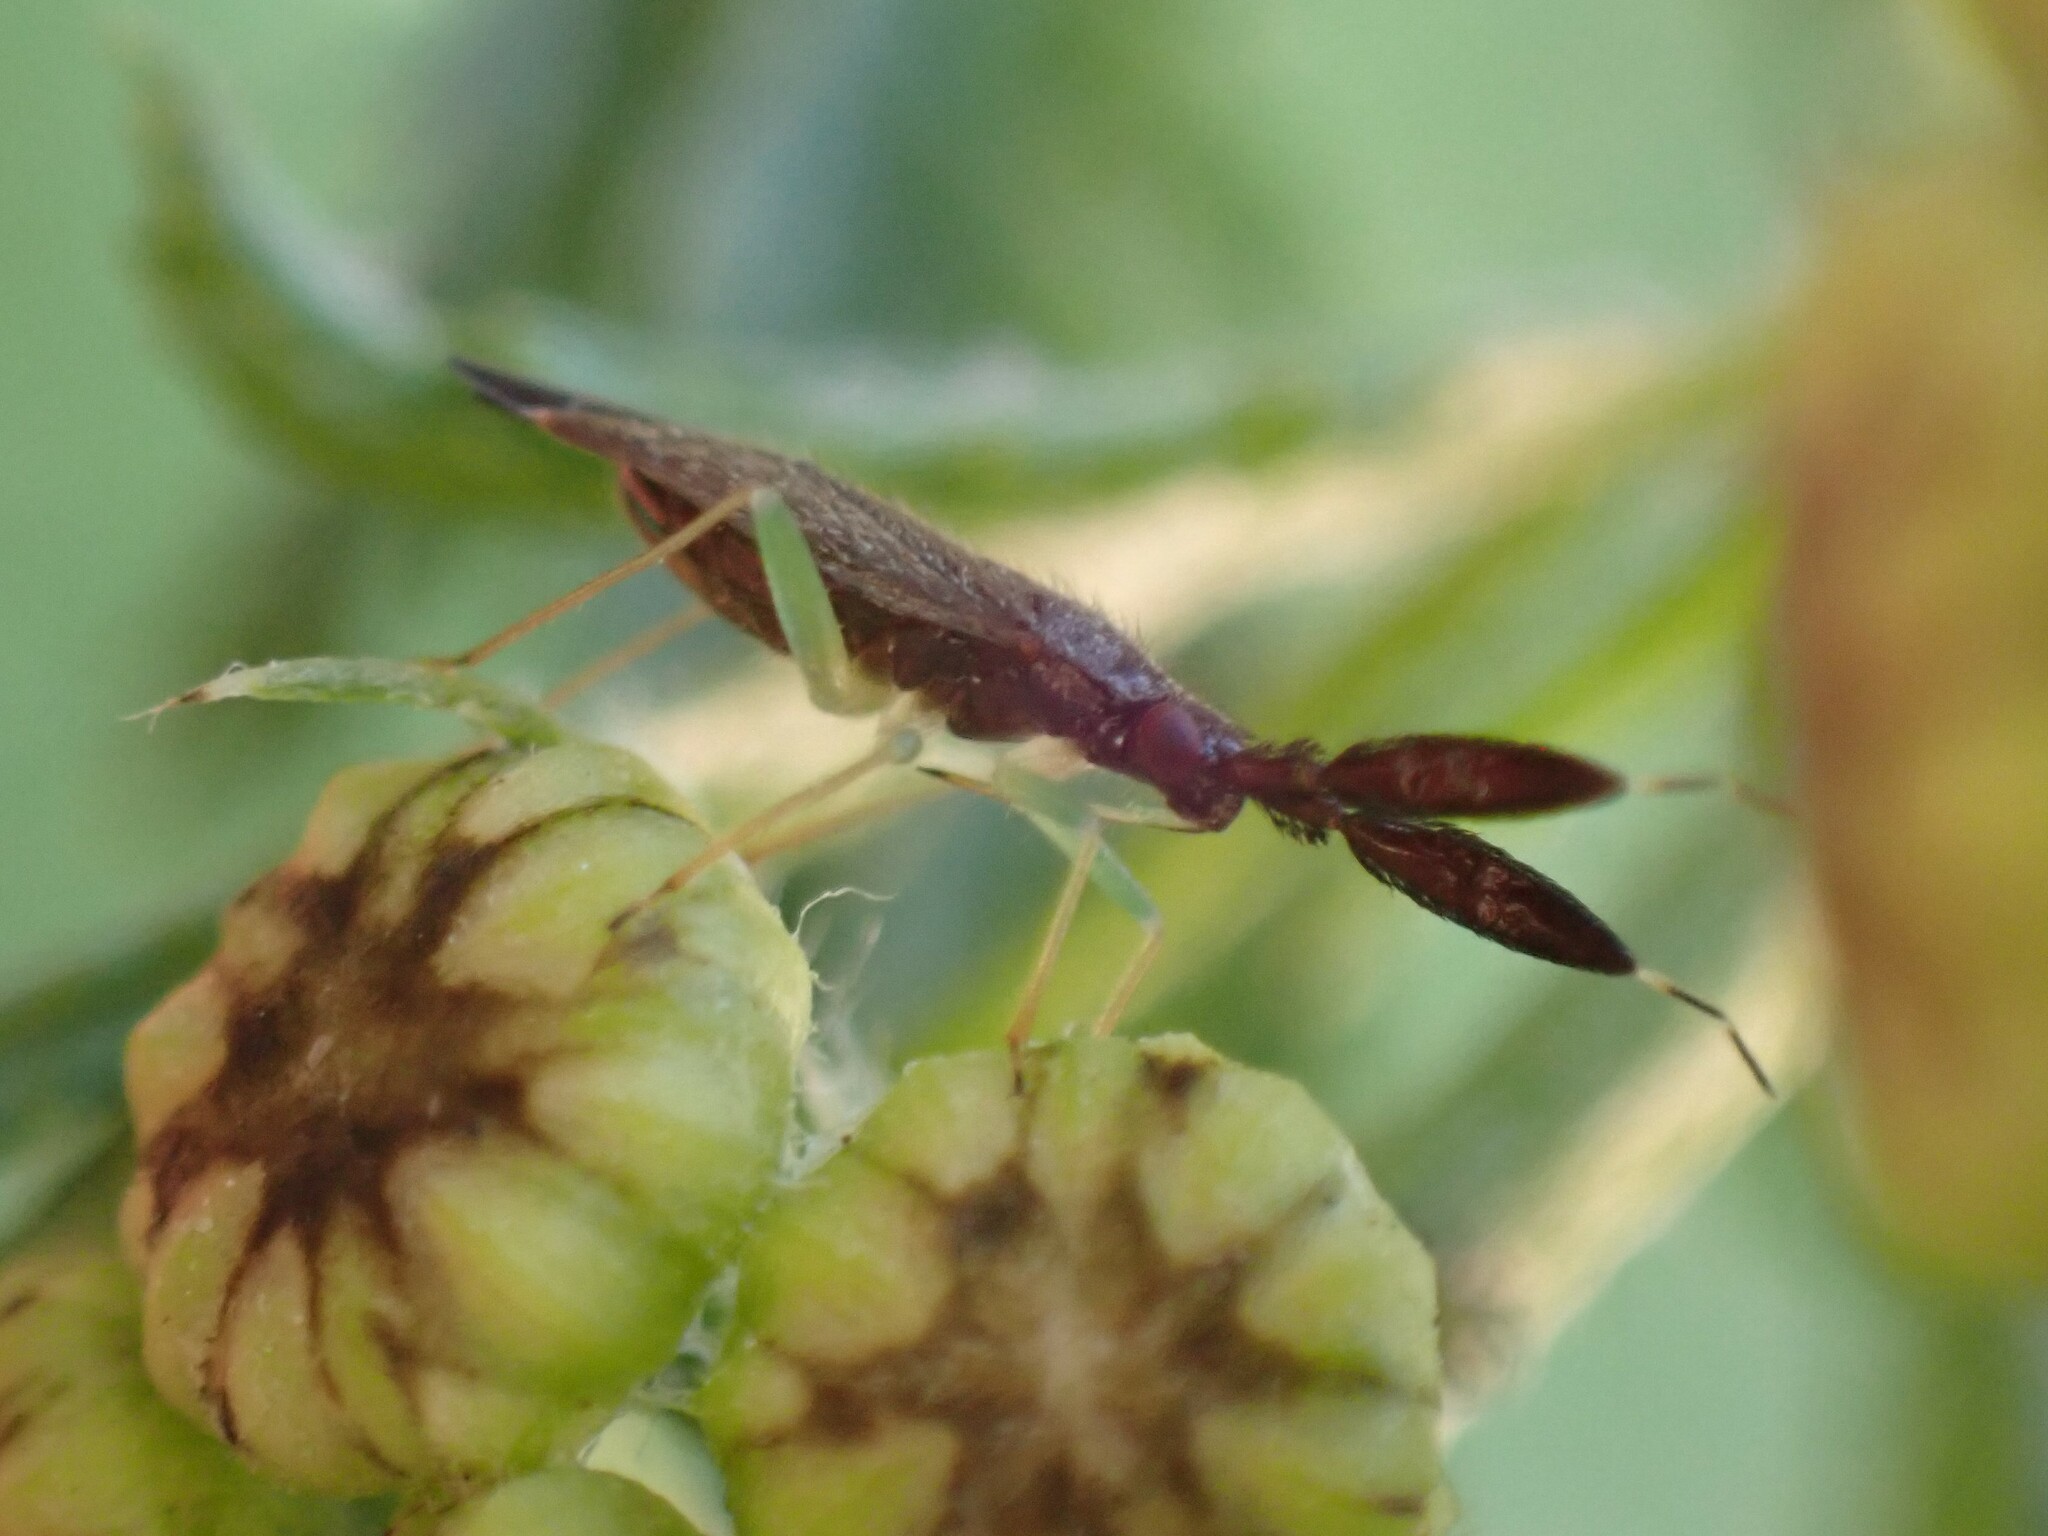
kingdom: Animalia
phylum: Arthropoda
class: Insecta
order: Hemiptera
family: Miridae
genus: Heterotoma
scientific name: Heterotoma planicornis
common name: Plant bug
